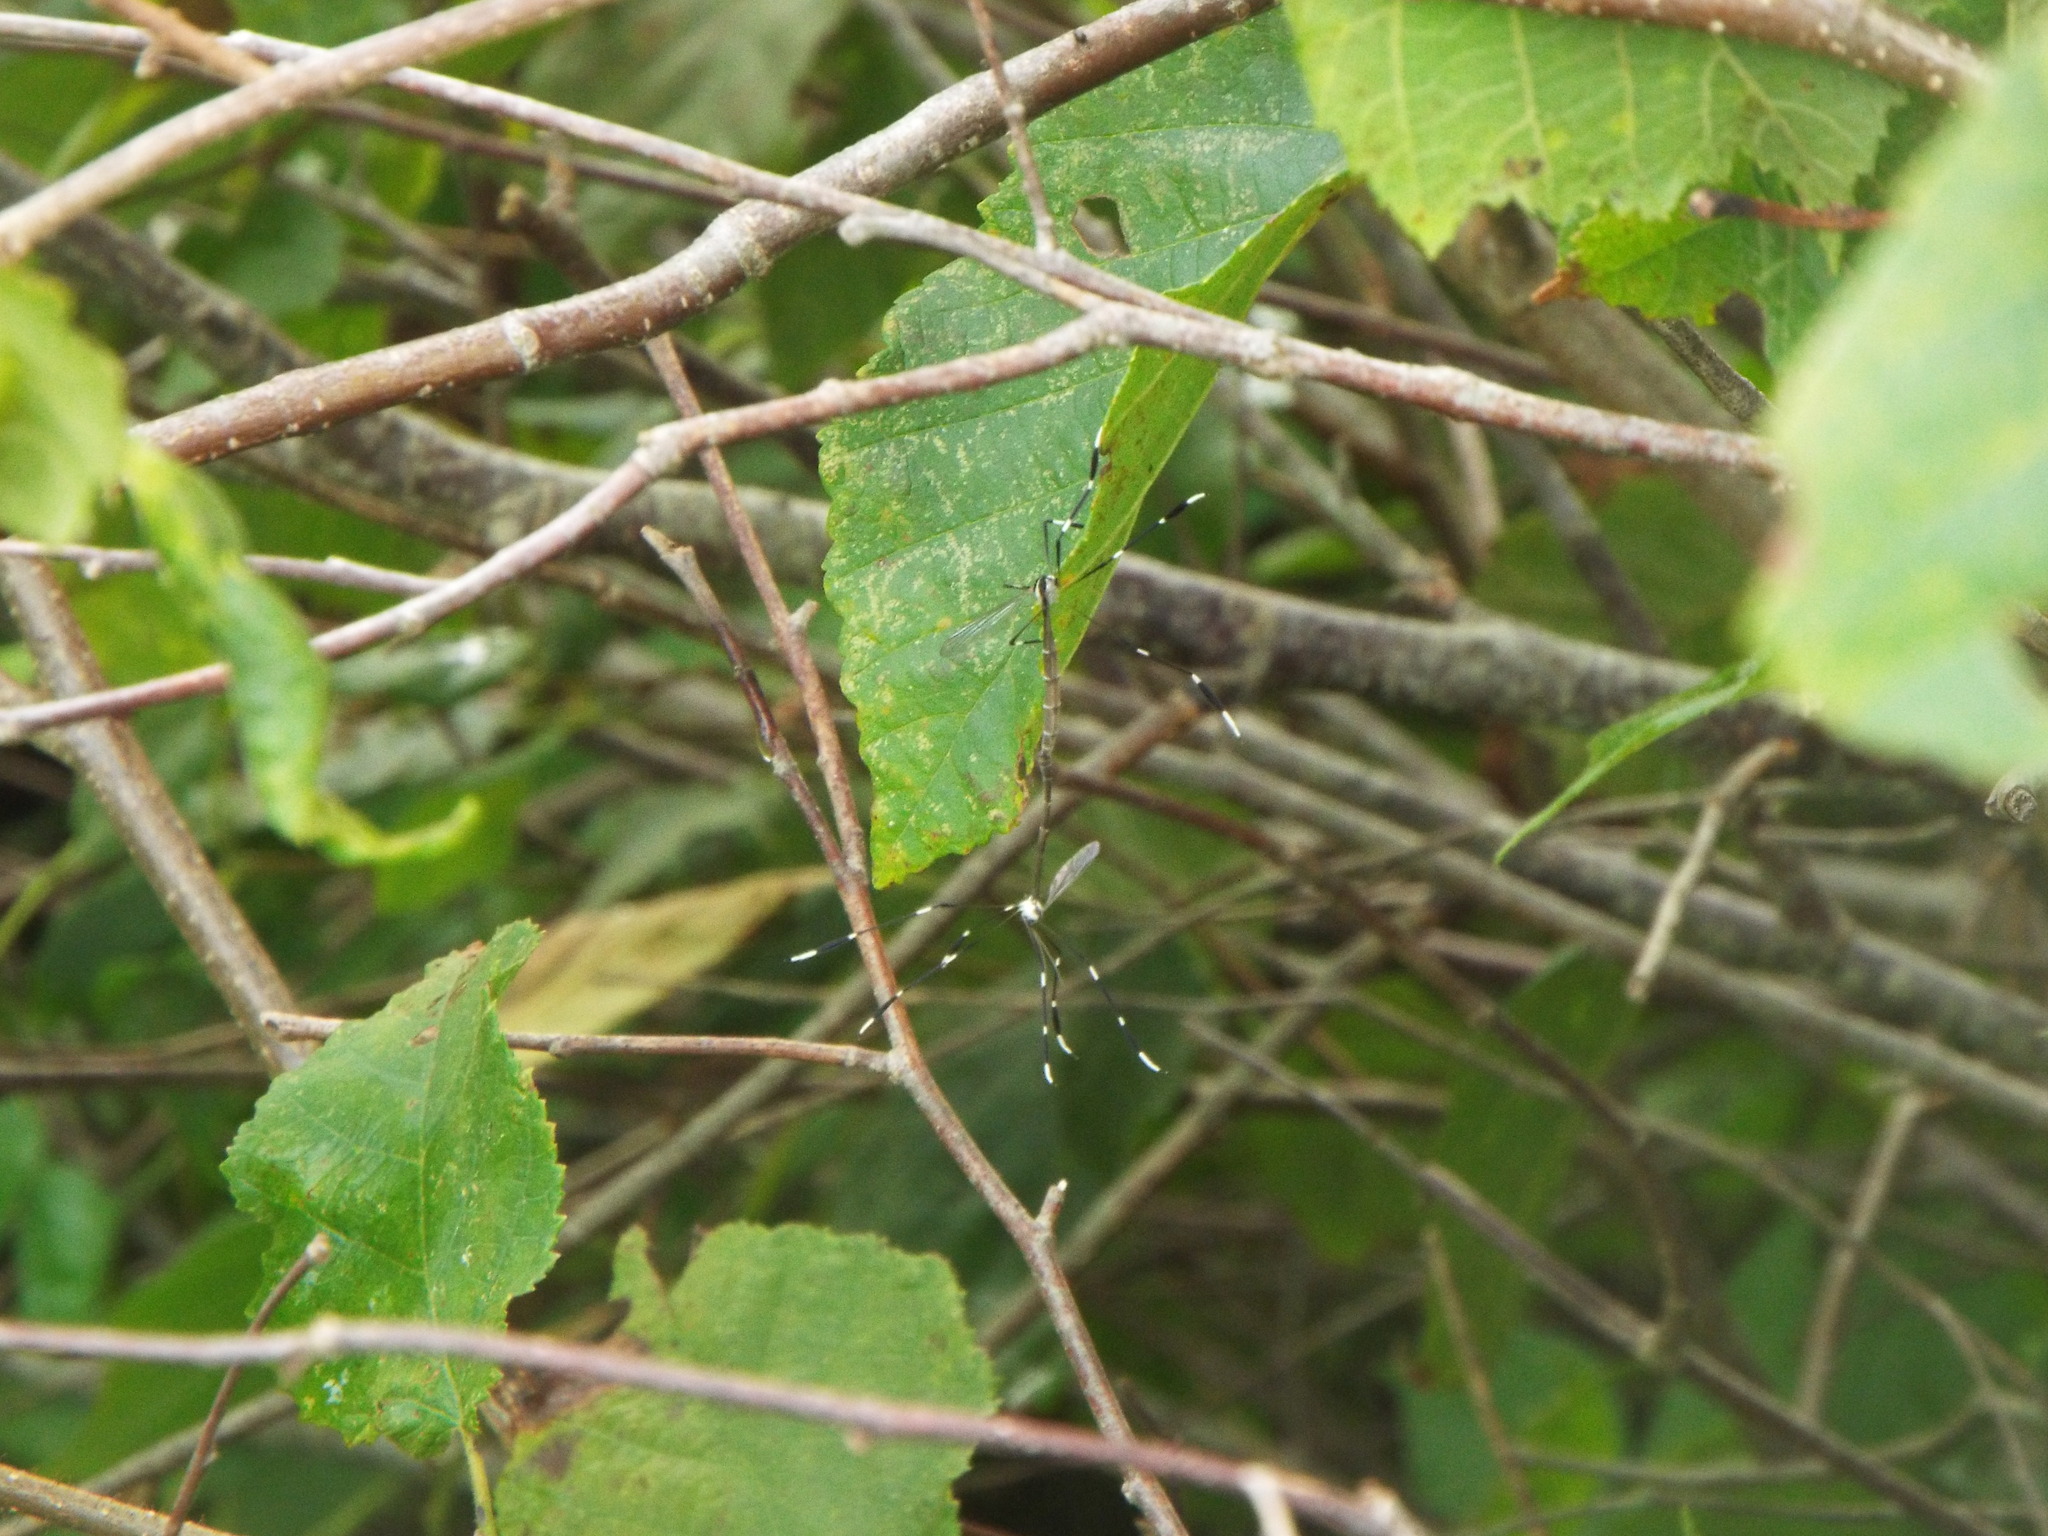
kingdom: Animalia
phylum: Arthropoda
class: Insecta
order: Diptera
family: Ptychopteridae
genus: Bittacomorpha
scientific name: Bittacomorpha clavipes
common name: Eastern phantom crane fly
